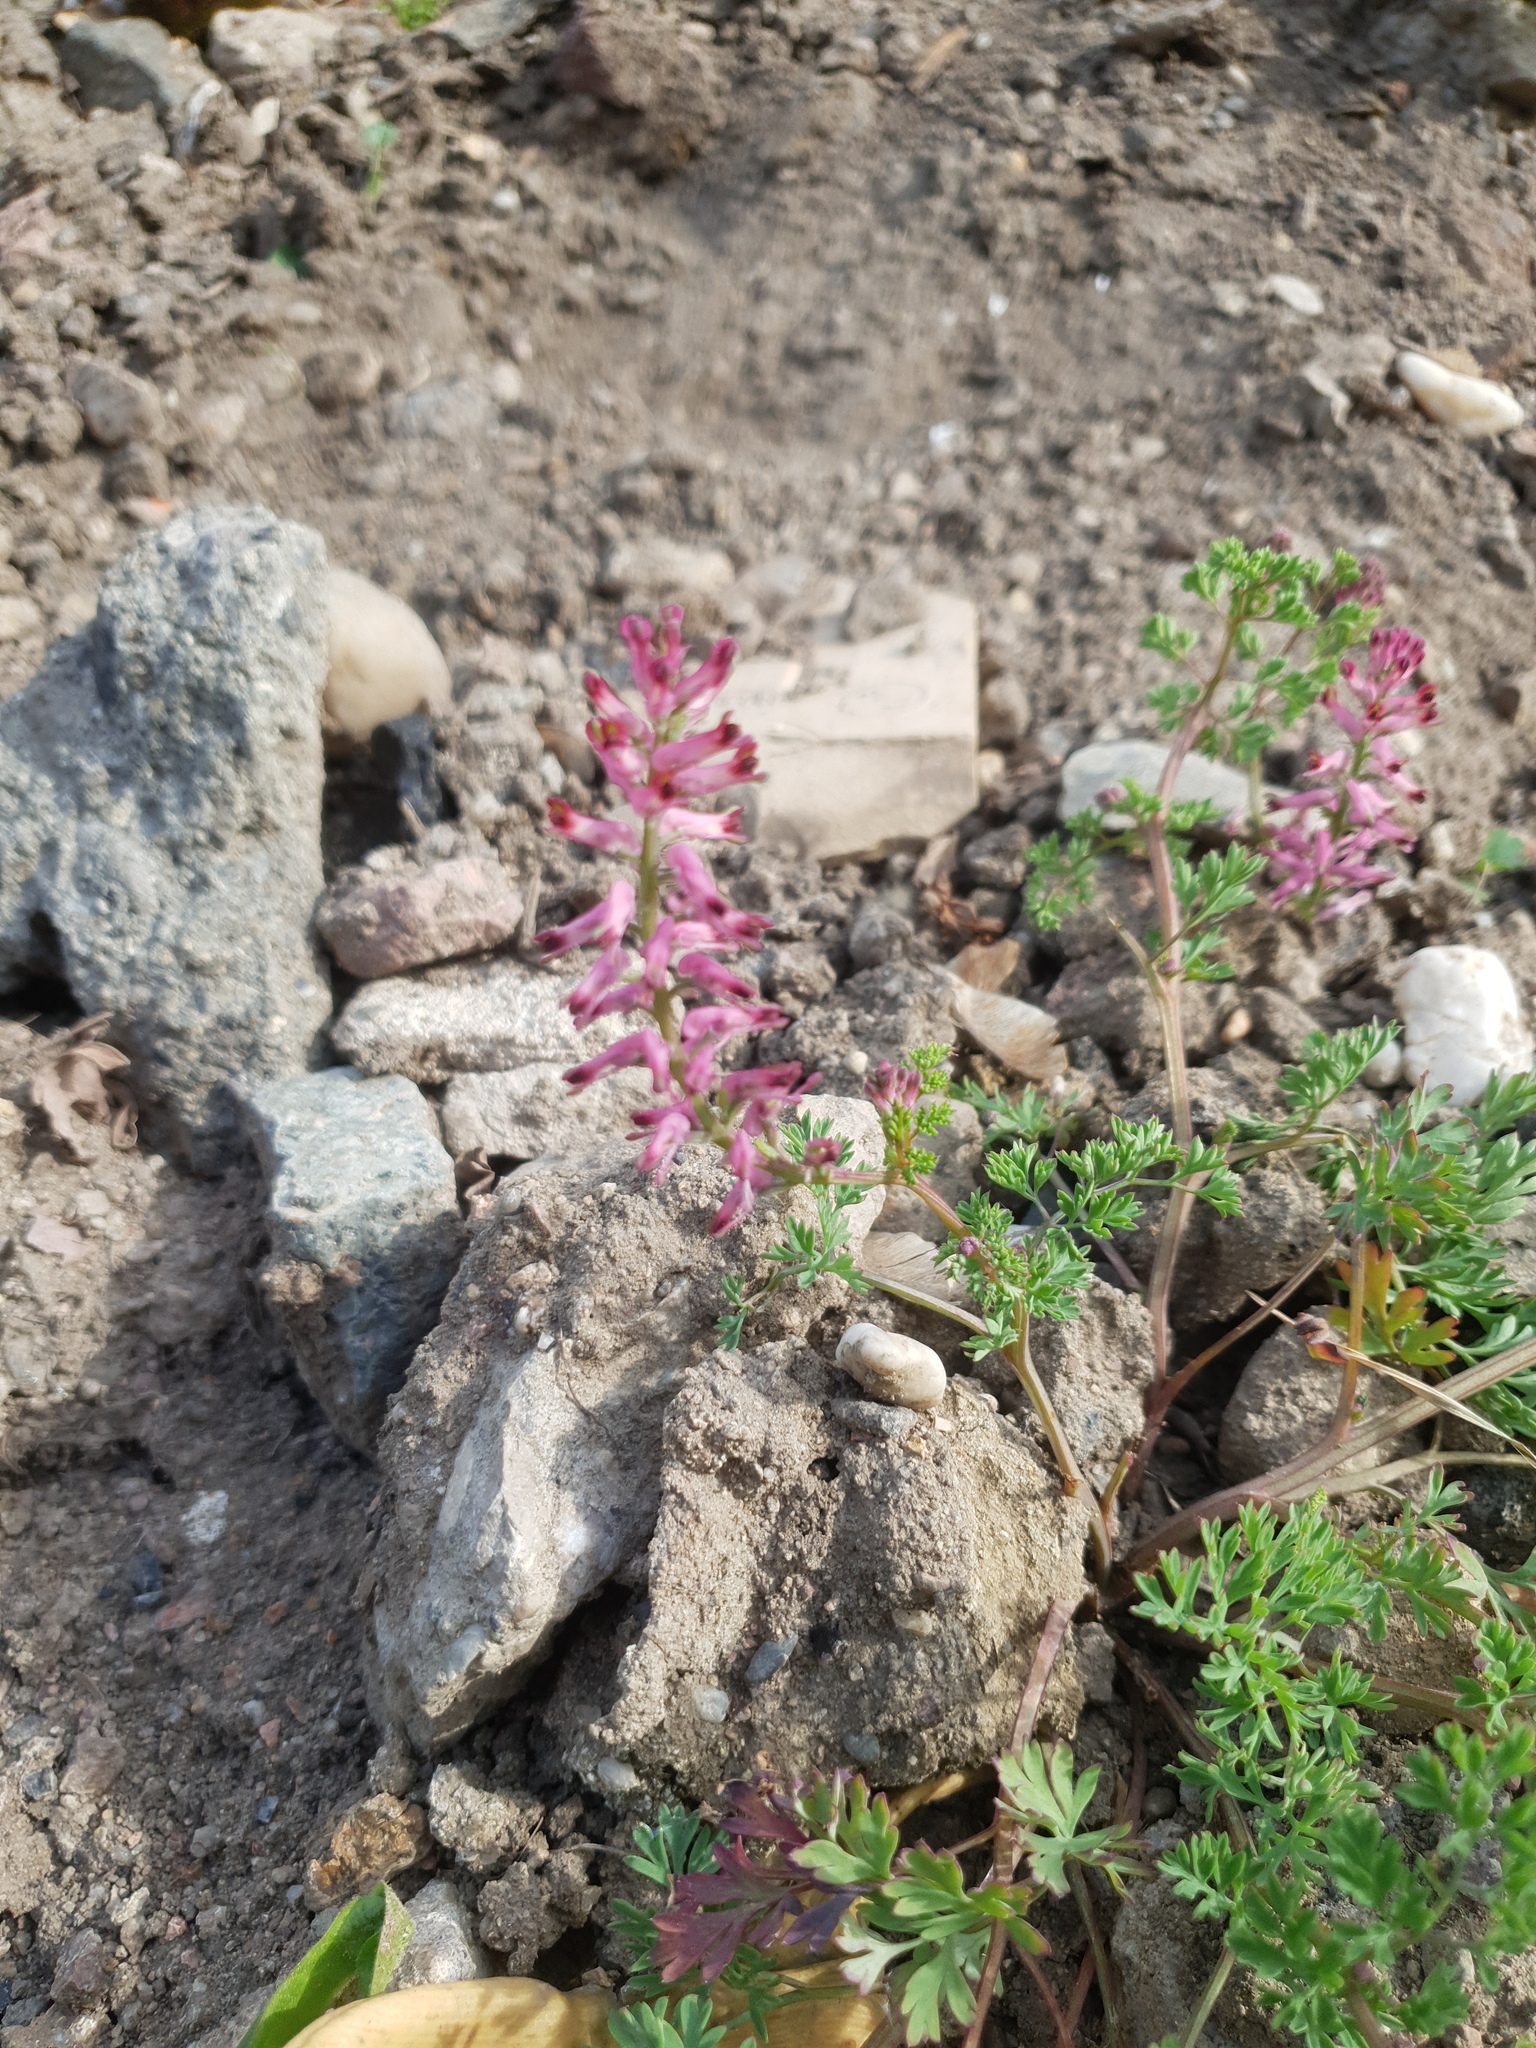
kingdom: Plantae
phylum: Tracheophyta
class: Magnoliopsida
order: Ranunculales
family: Papaveraceae
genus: Fumaria
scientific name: Fumaria officinalis
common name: Common fumitory
